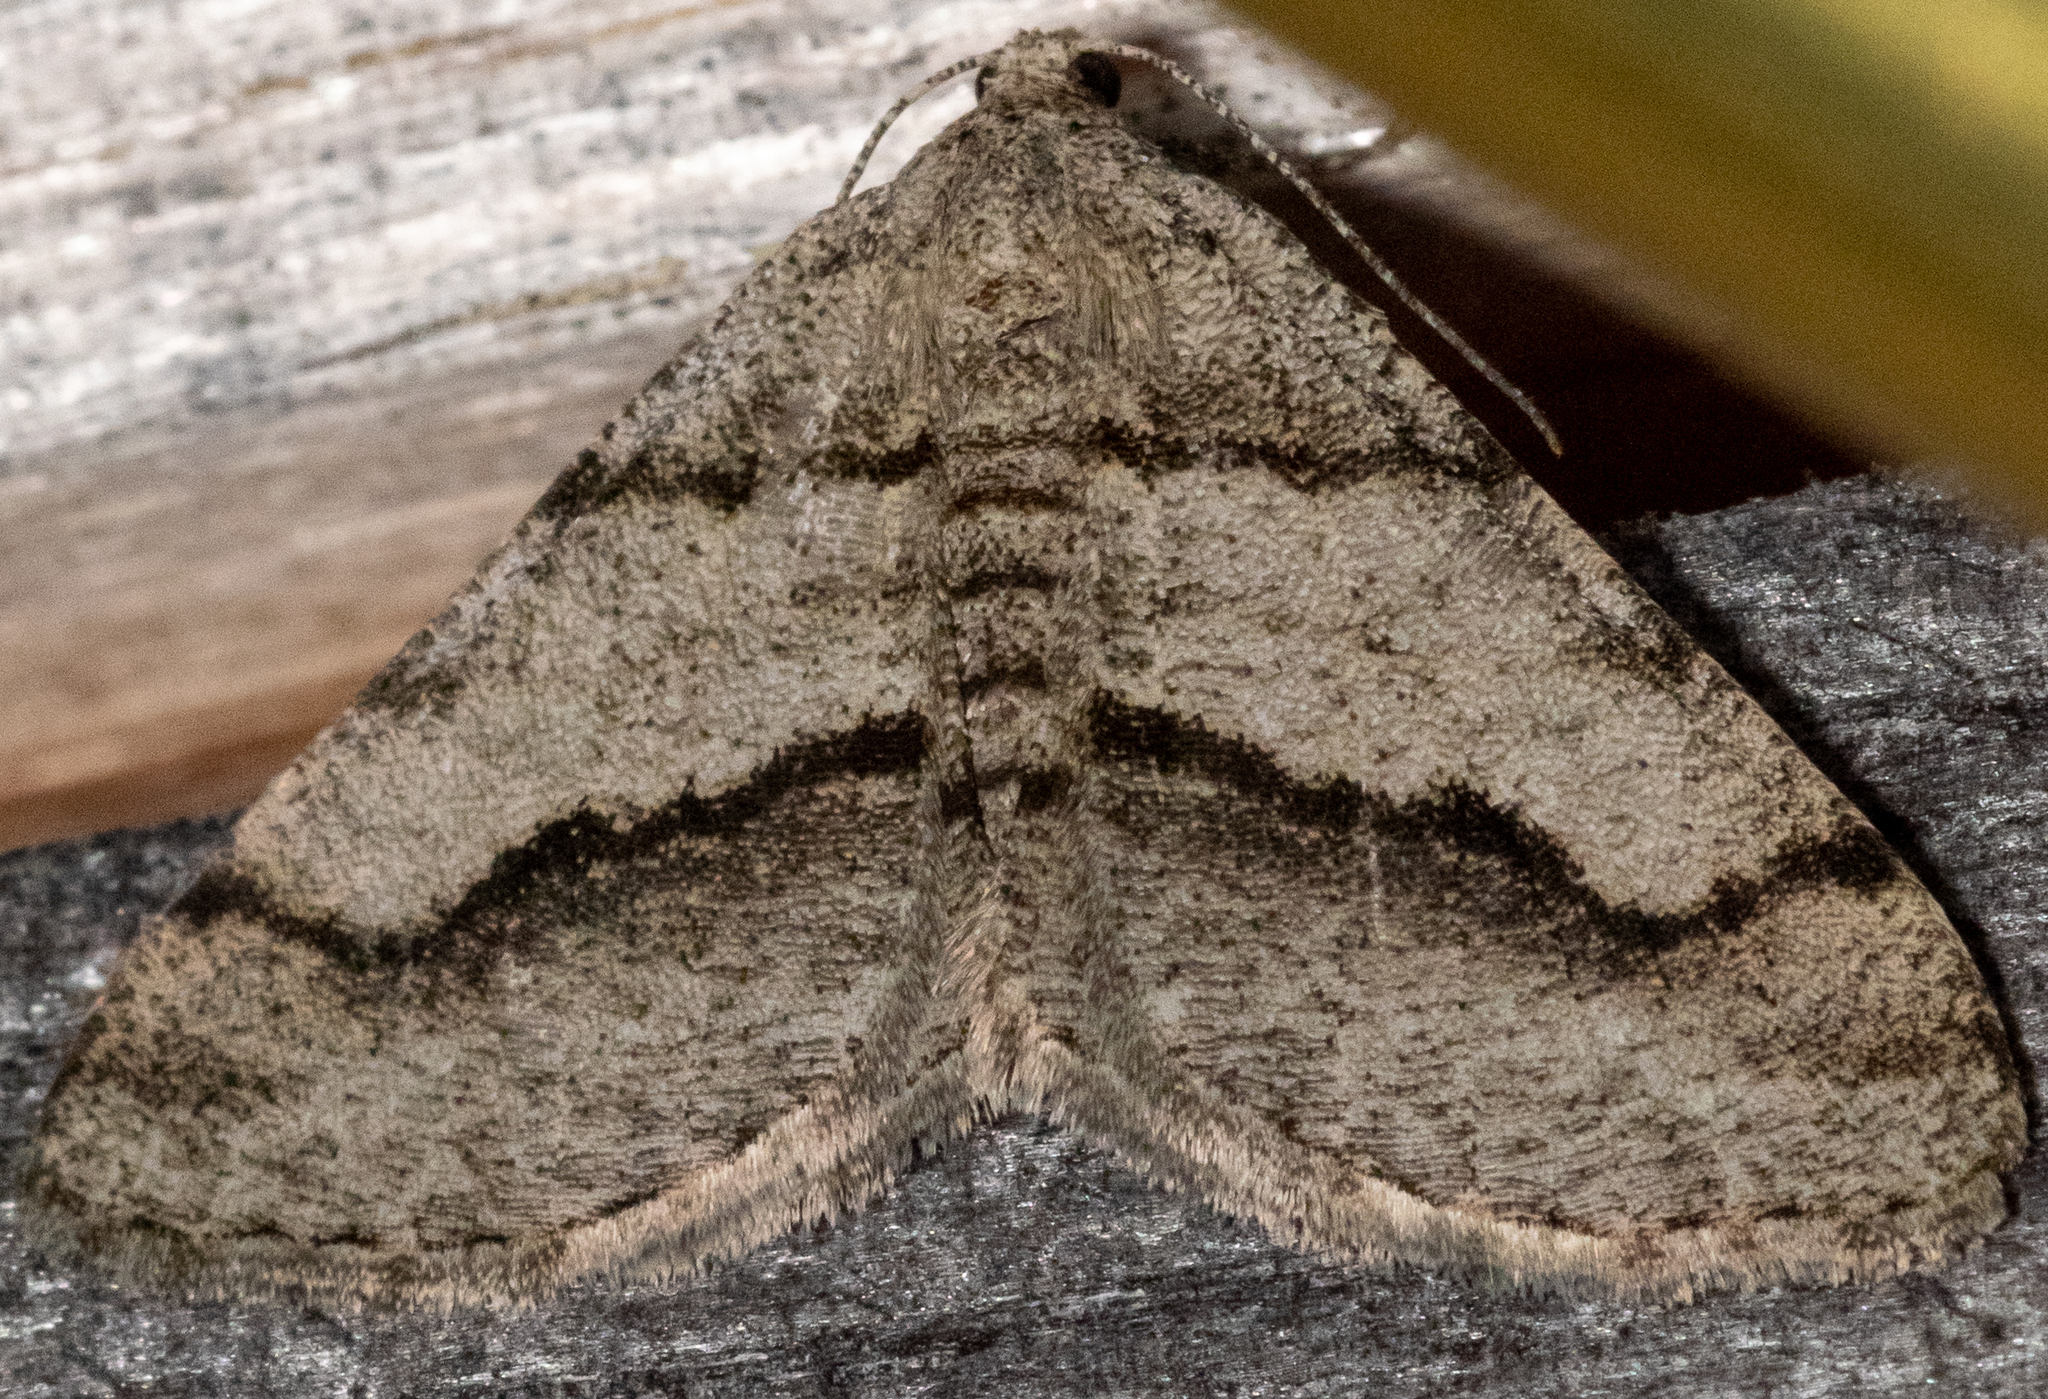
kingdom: Animalia
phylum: Arthropoda
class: Insecta
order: Lepidoptera
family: Geometridae
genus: Digrammia
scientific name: Digrammia continuata
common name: Curve-lined angle
